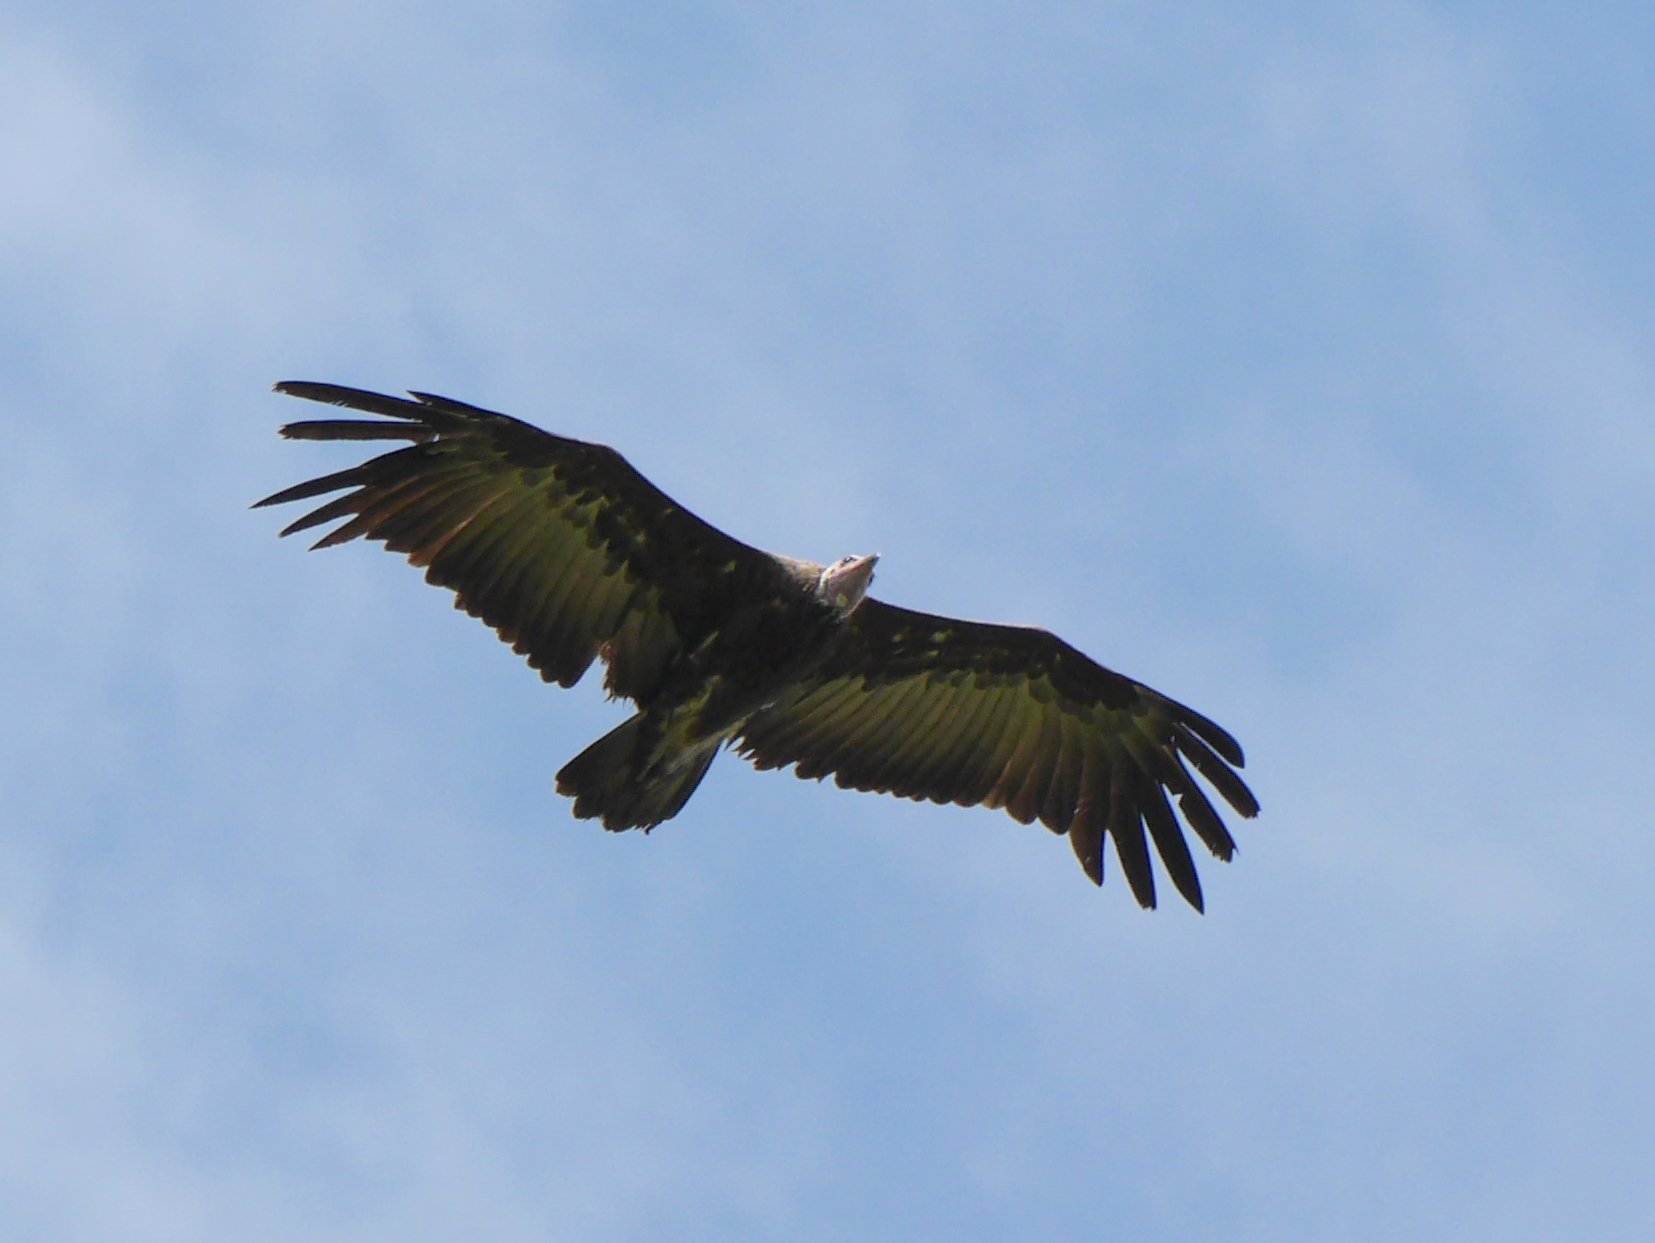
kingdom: Animalia
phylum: Chordata
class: Aves
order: Accipitriformes
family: Accipitridae
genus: Necrosyrtes
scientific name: Necrosyrtes monachus
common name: Hooded vulture
